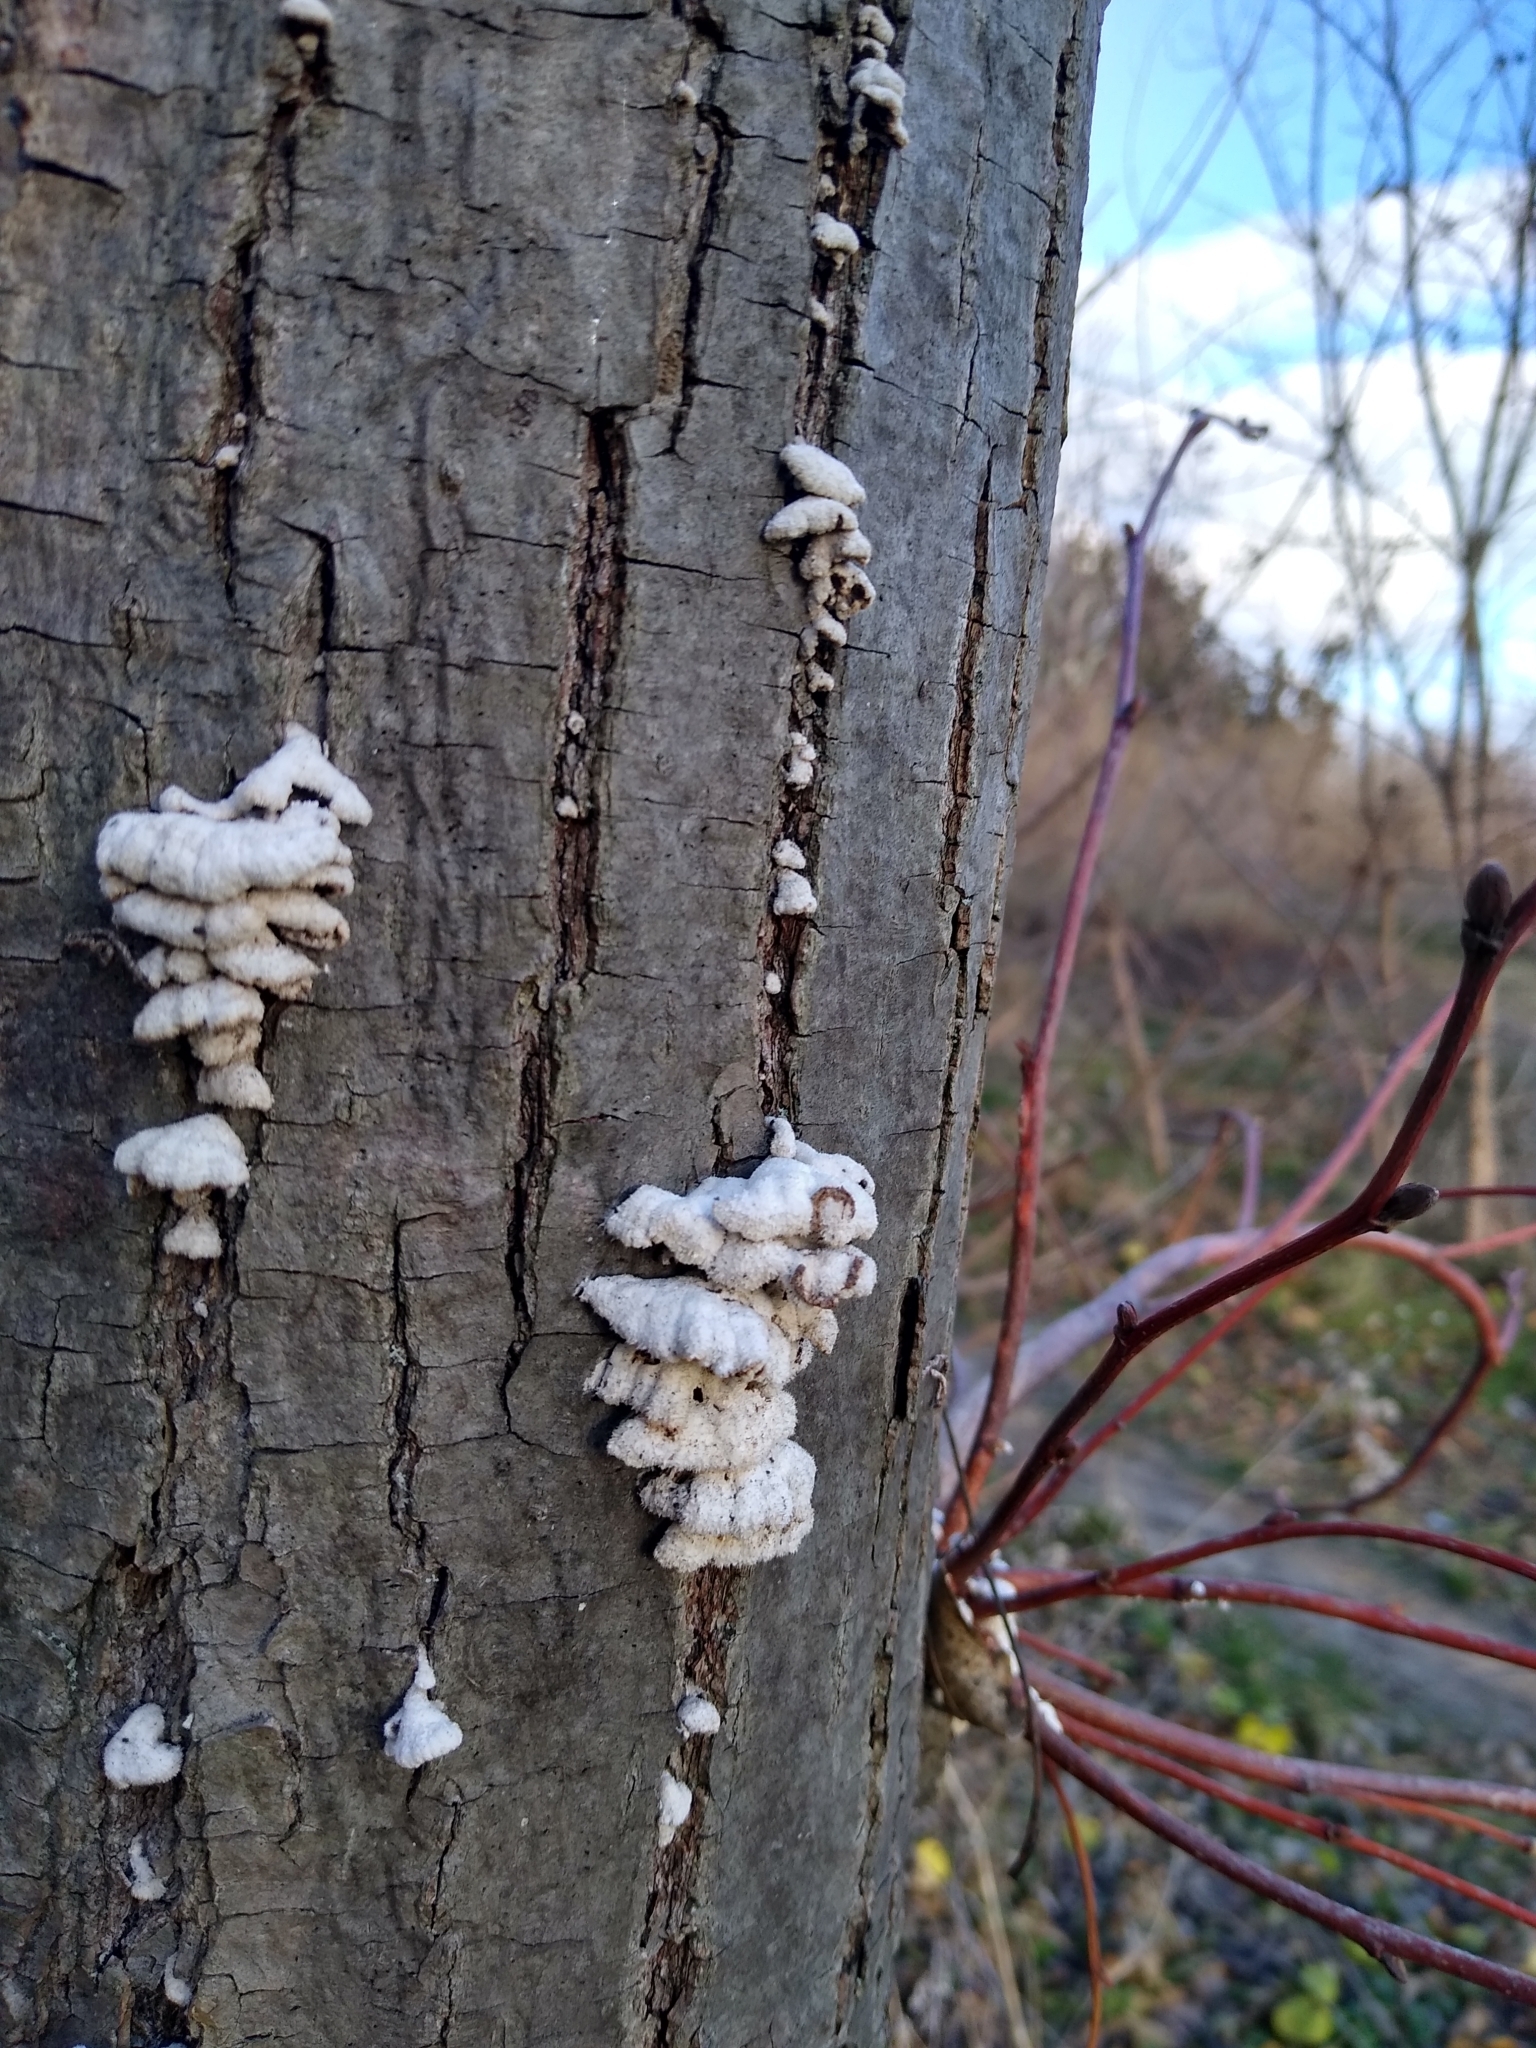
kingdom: Fungi
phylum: Basidiomycota
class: Agaricomycetes
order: Agaricales
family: Schizophyllaceae
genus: Schizophyllum
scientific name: Schizophyllum commune
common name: Common porecrust
